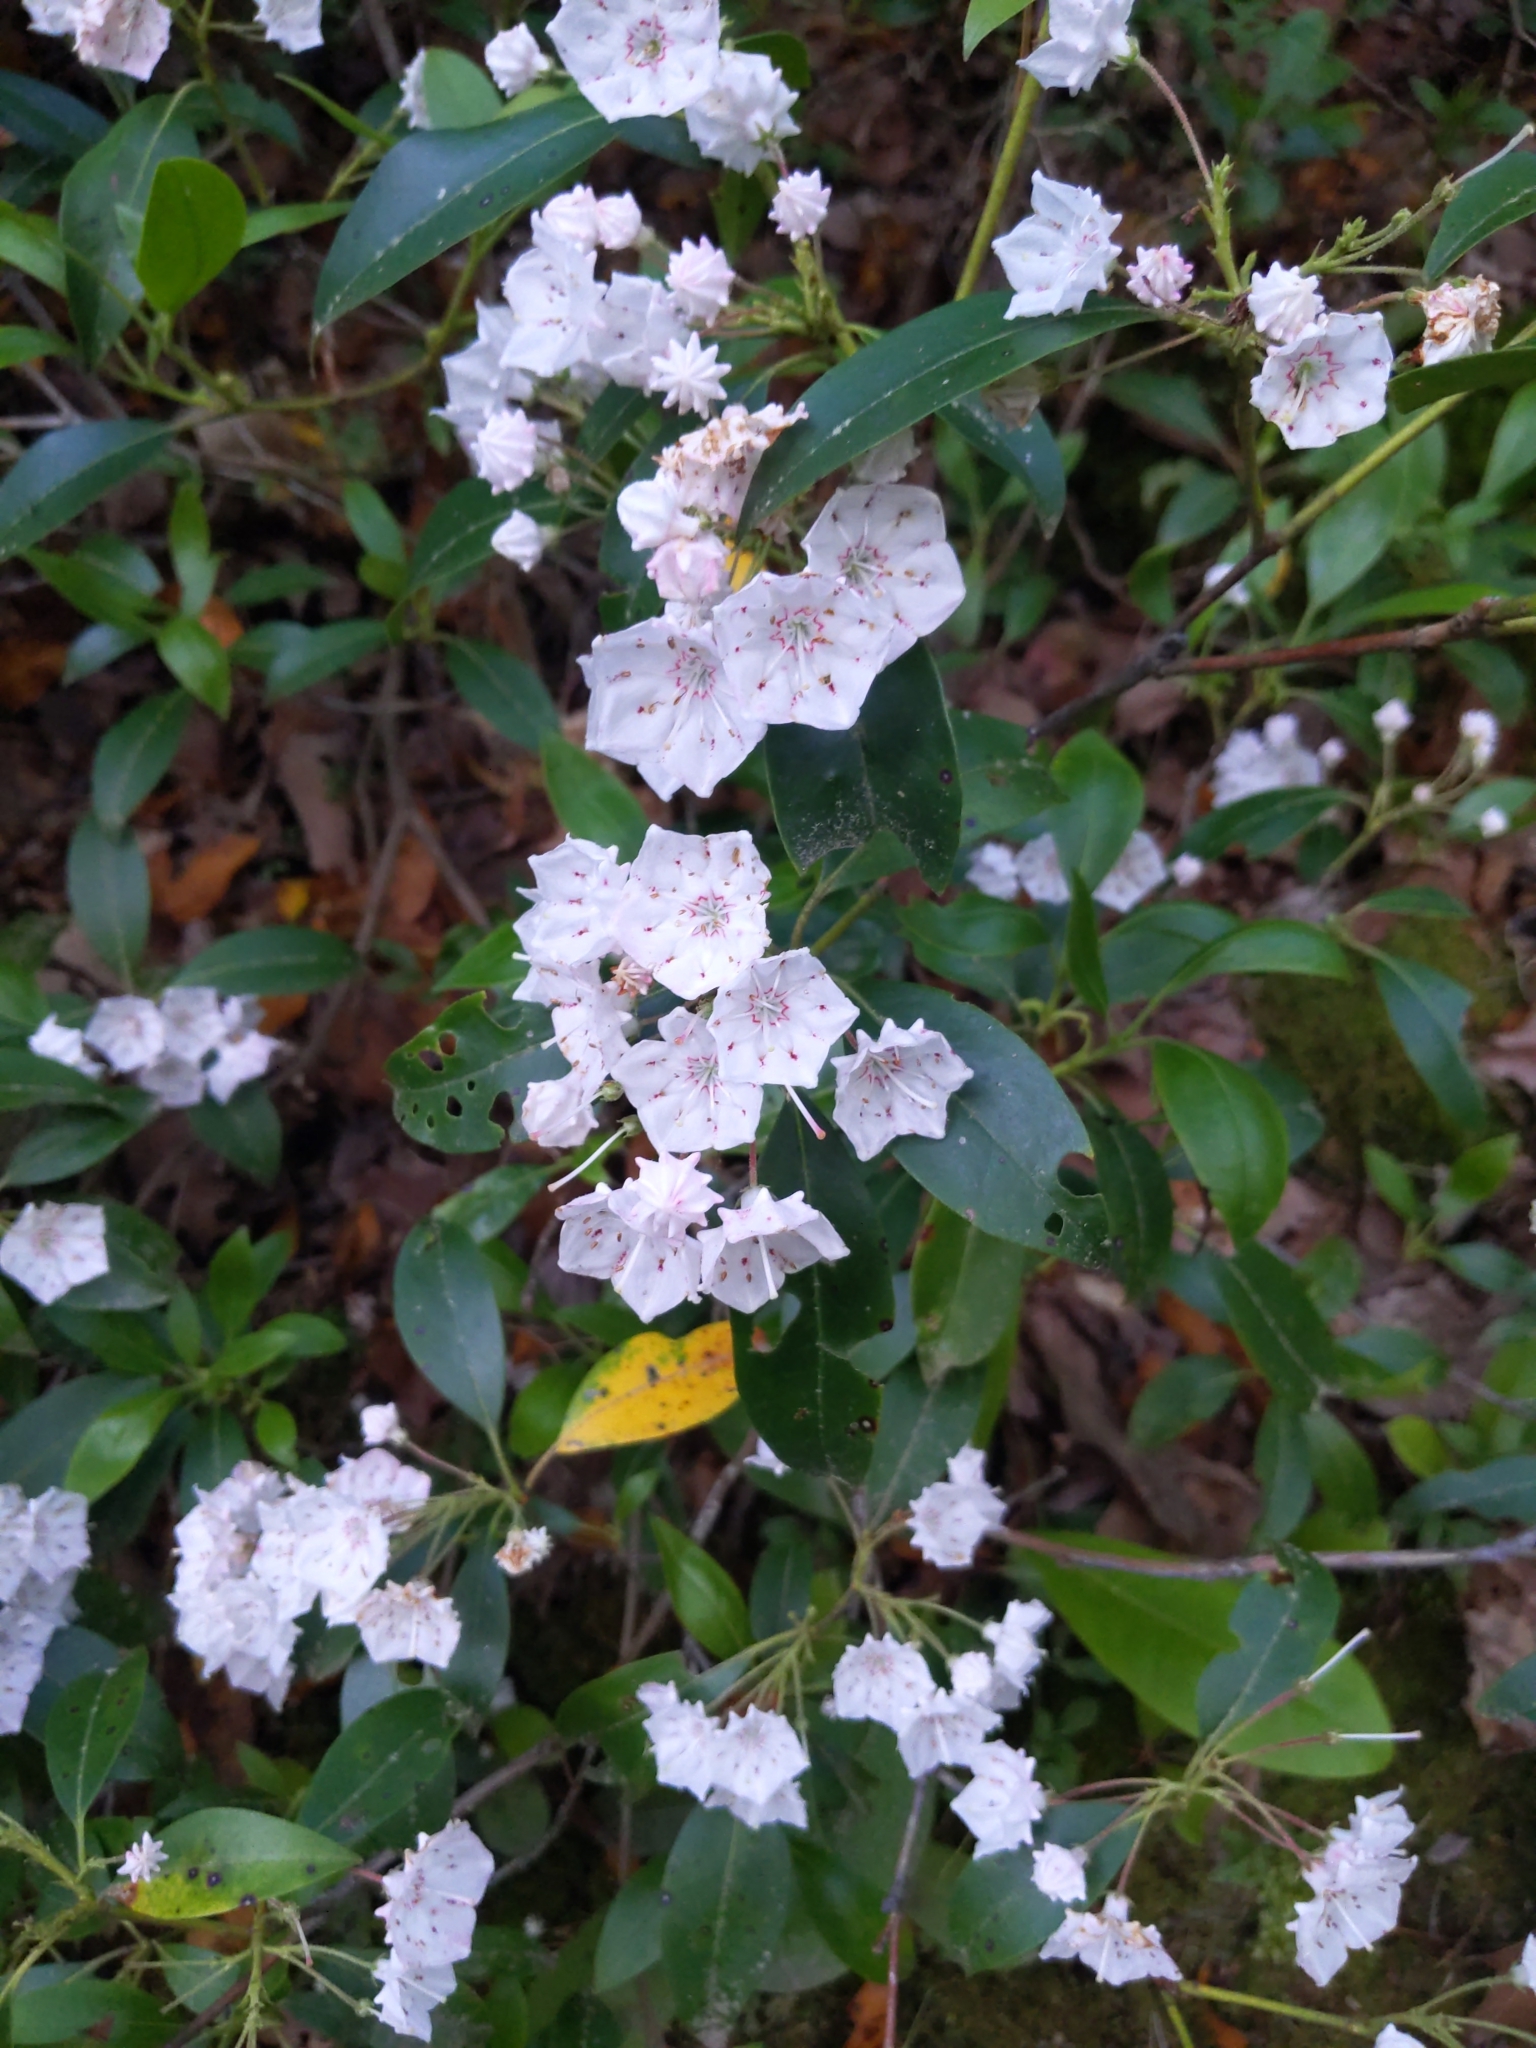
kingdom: Plantae
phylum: Tracheophyta
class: Magnoliopsida
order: Ericales
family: Ericaceae
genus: Kalmia
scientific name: Kalmia latifolia
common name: Mountain-laurel
